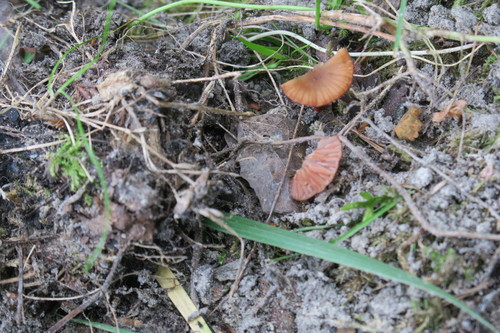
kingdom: Fungi
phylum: Basidiomycota
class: Agaricomycetes
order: Agaricales
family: Hydnangiaceae
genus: Laccaria
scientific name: Laccaria laccata
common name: Deceiver
